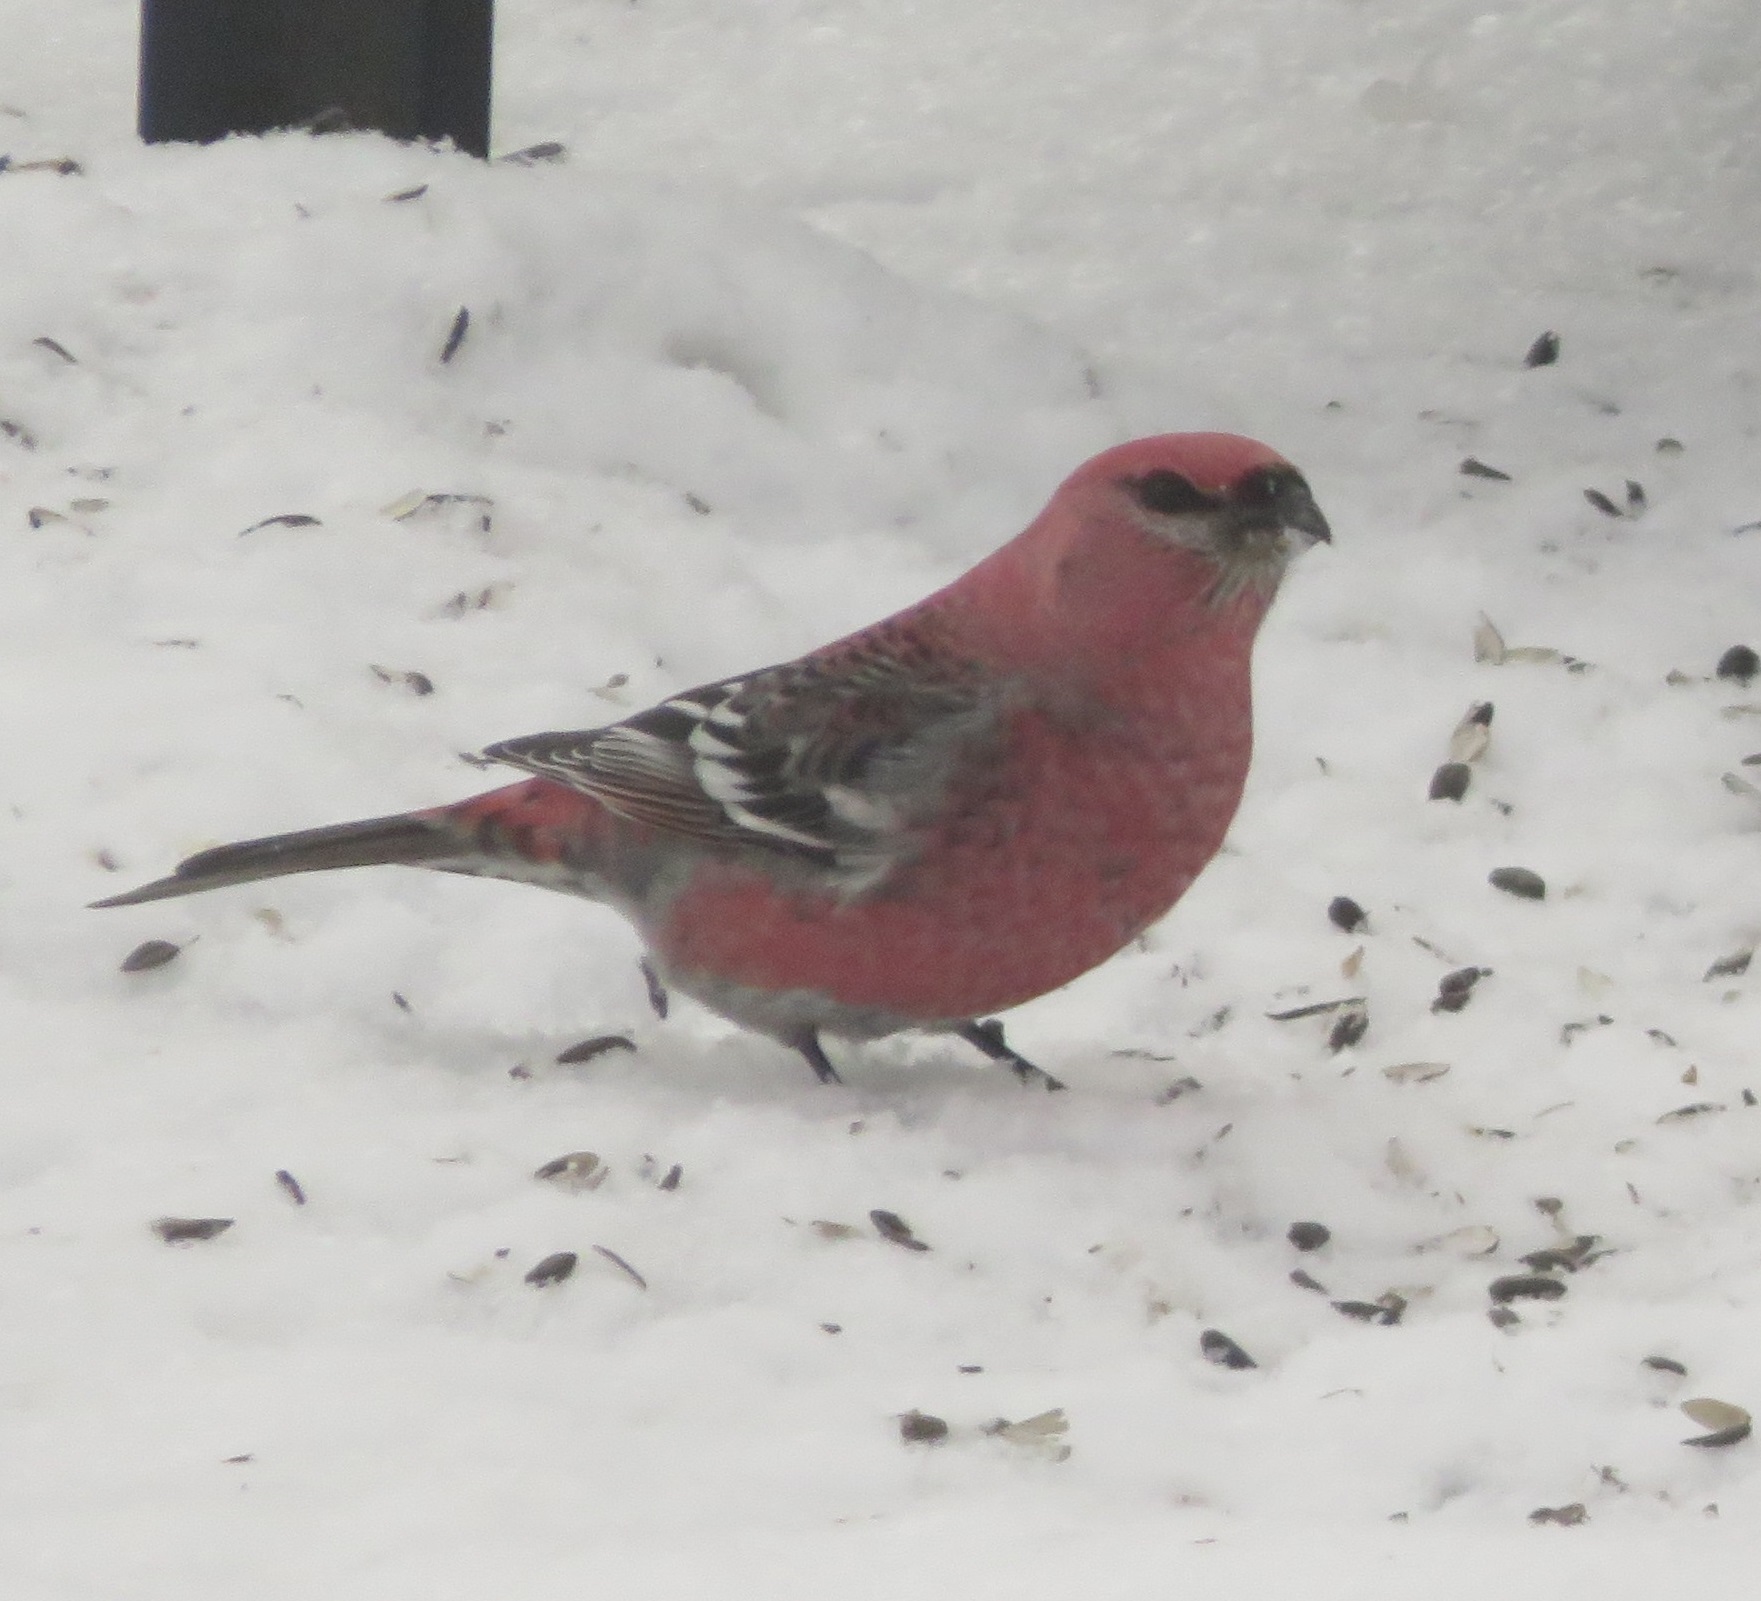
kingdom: Animalia
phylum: Chordata
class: Aves
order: Passeriformes
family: Fringillidae
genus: Pinicola
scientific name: Pinicola enucleator
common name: Pine grosbeak
